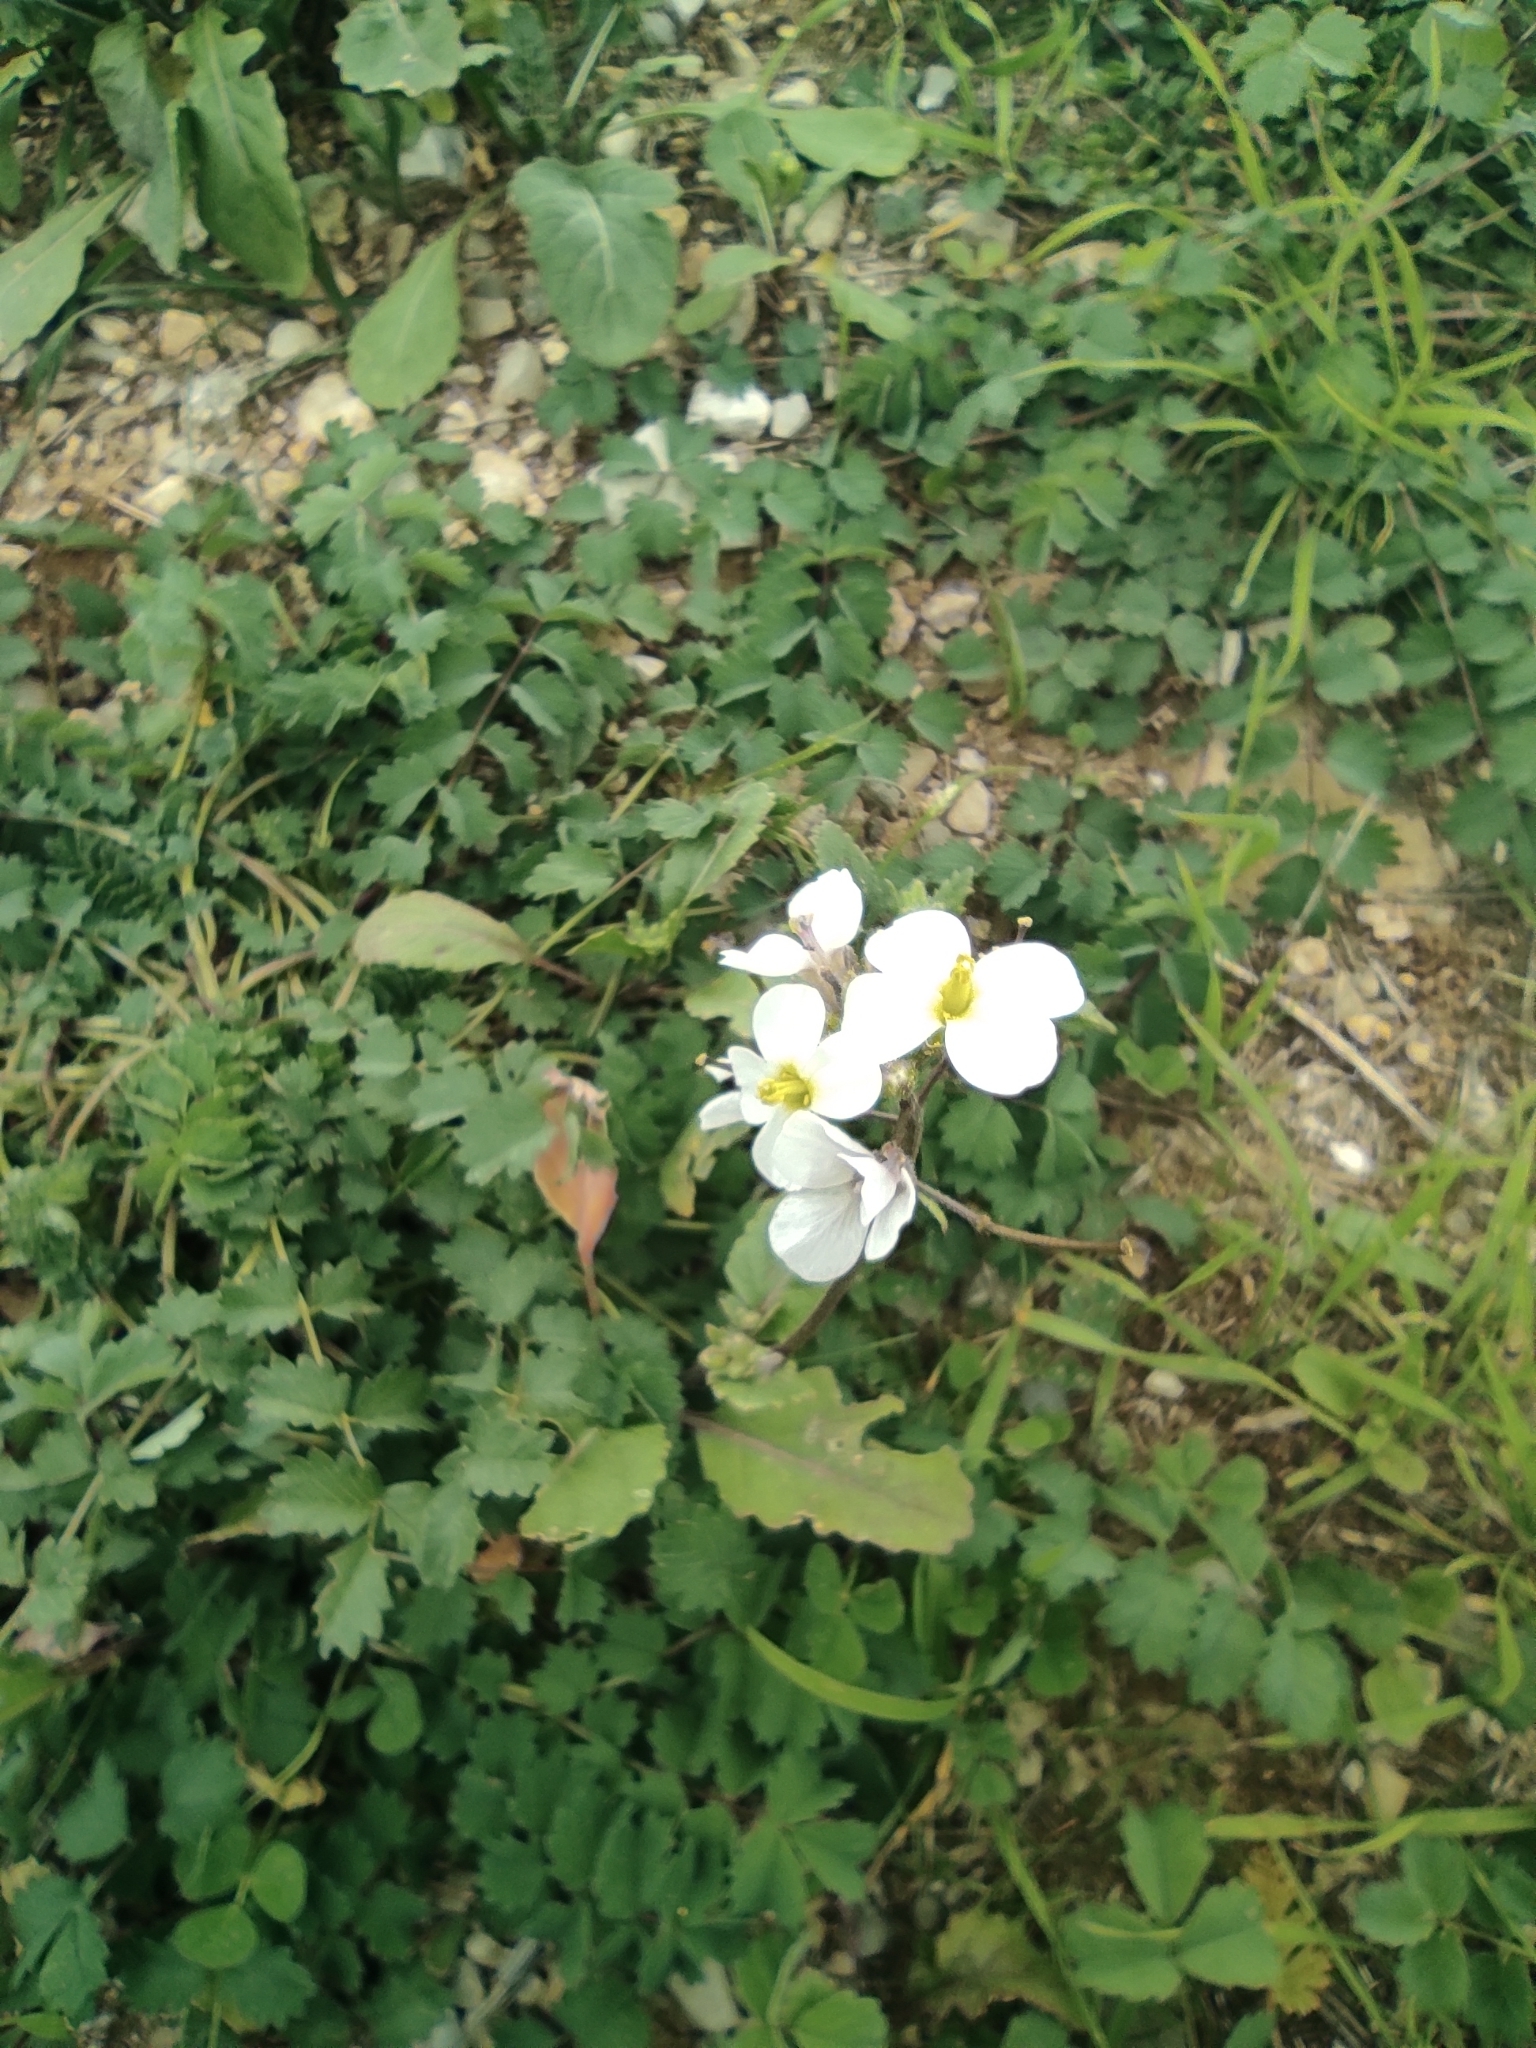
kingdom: Plantae
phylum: Tracheophyta
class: Magnoliopsida
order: Brassicales
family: Brassicaceae
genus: Diplotaxis
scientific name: Diplotaxis erucoides
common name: White rocket
